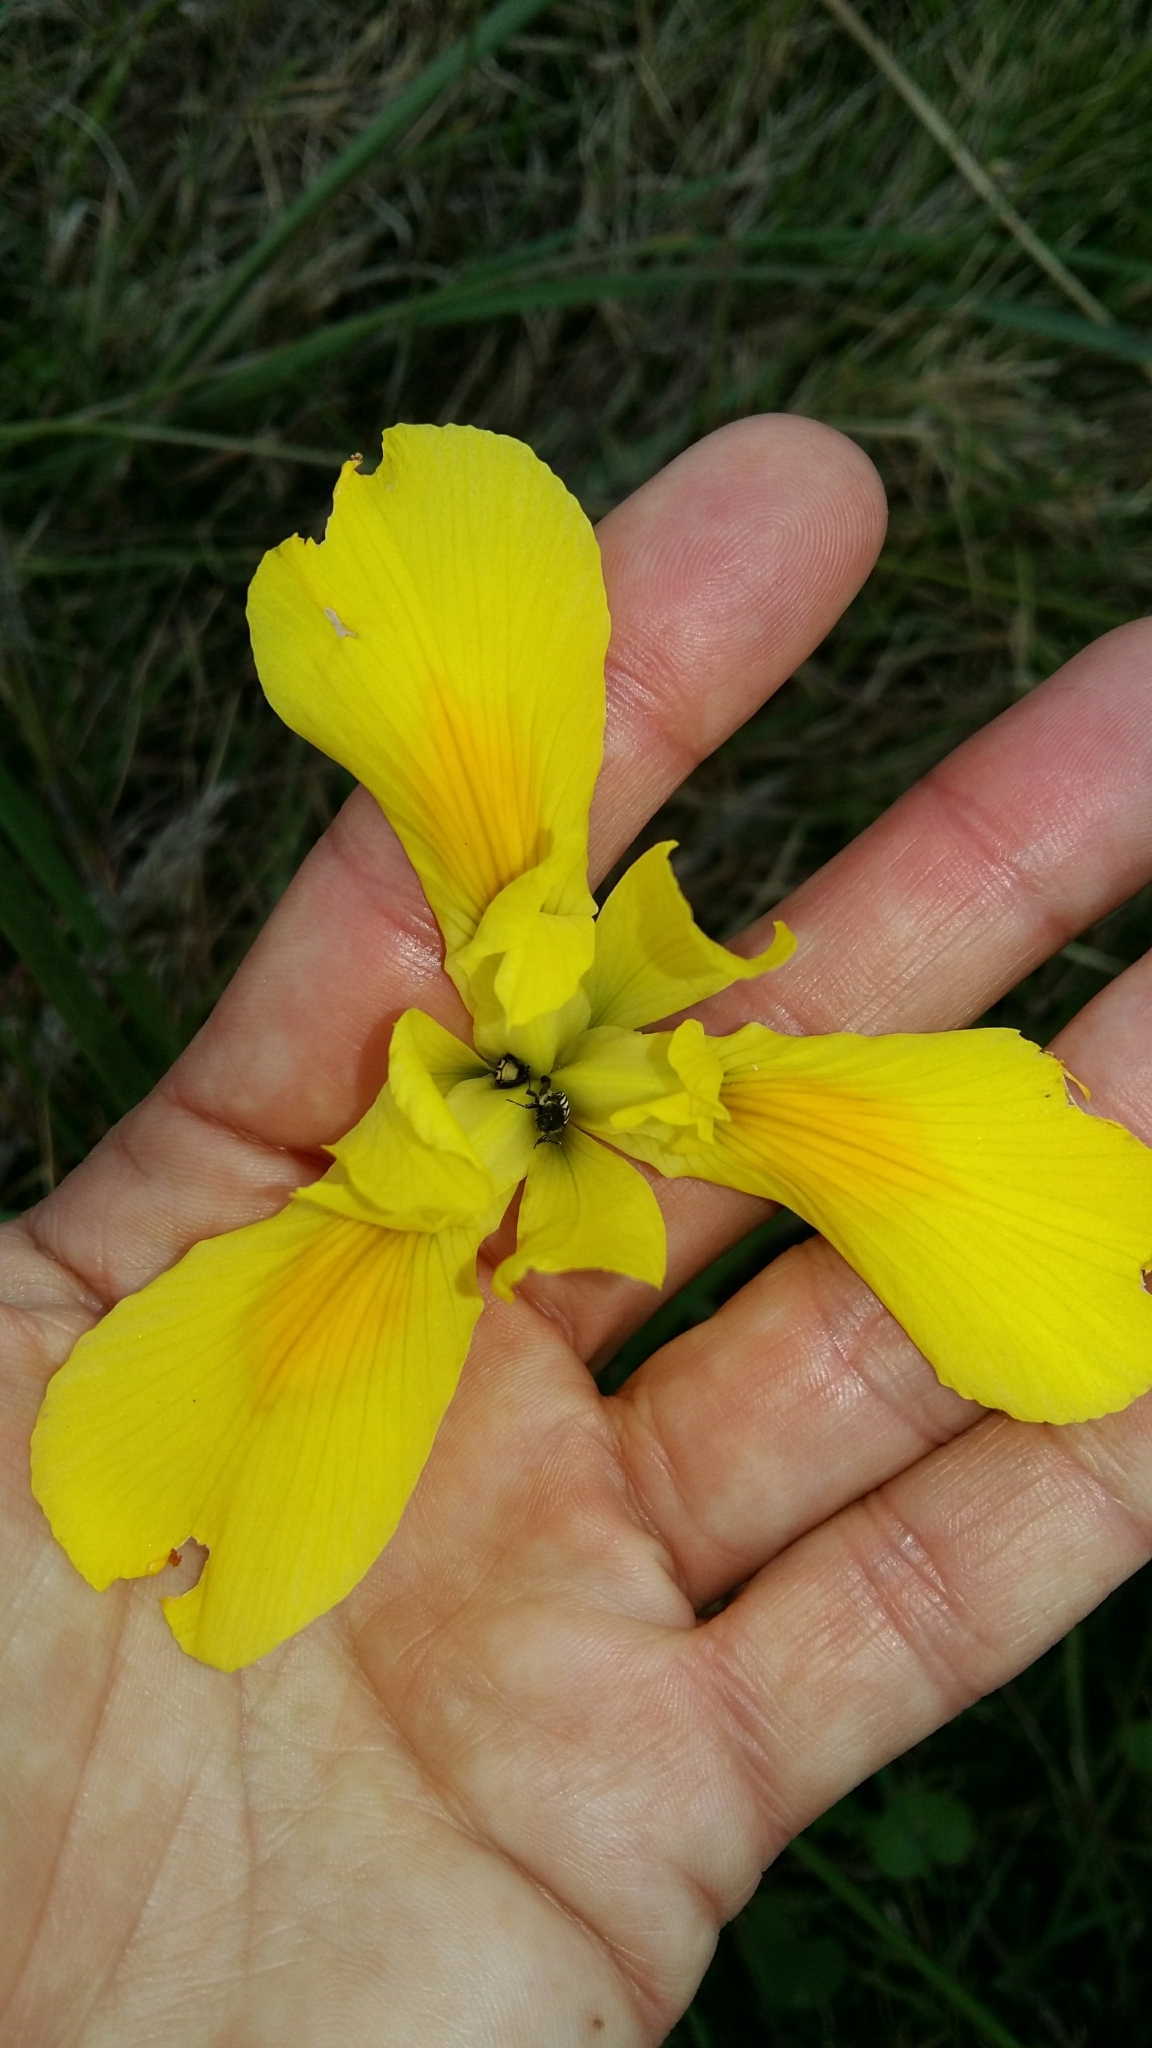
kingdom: Plantae
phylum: Tracheophyta
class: Liliopsida
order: Asparagales
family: Iridaceae
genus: Moraea
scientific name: Moraea spathulata
